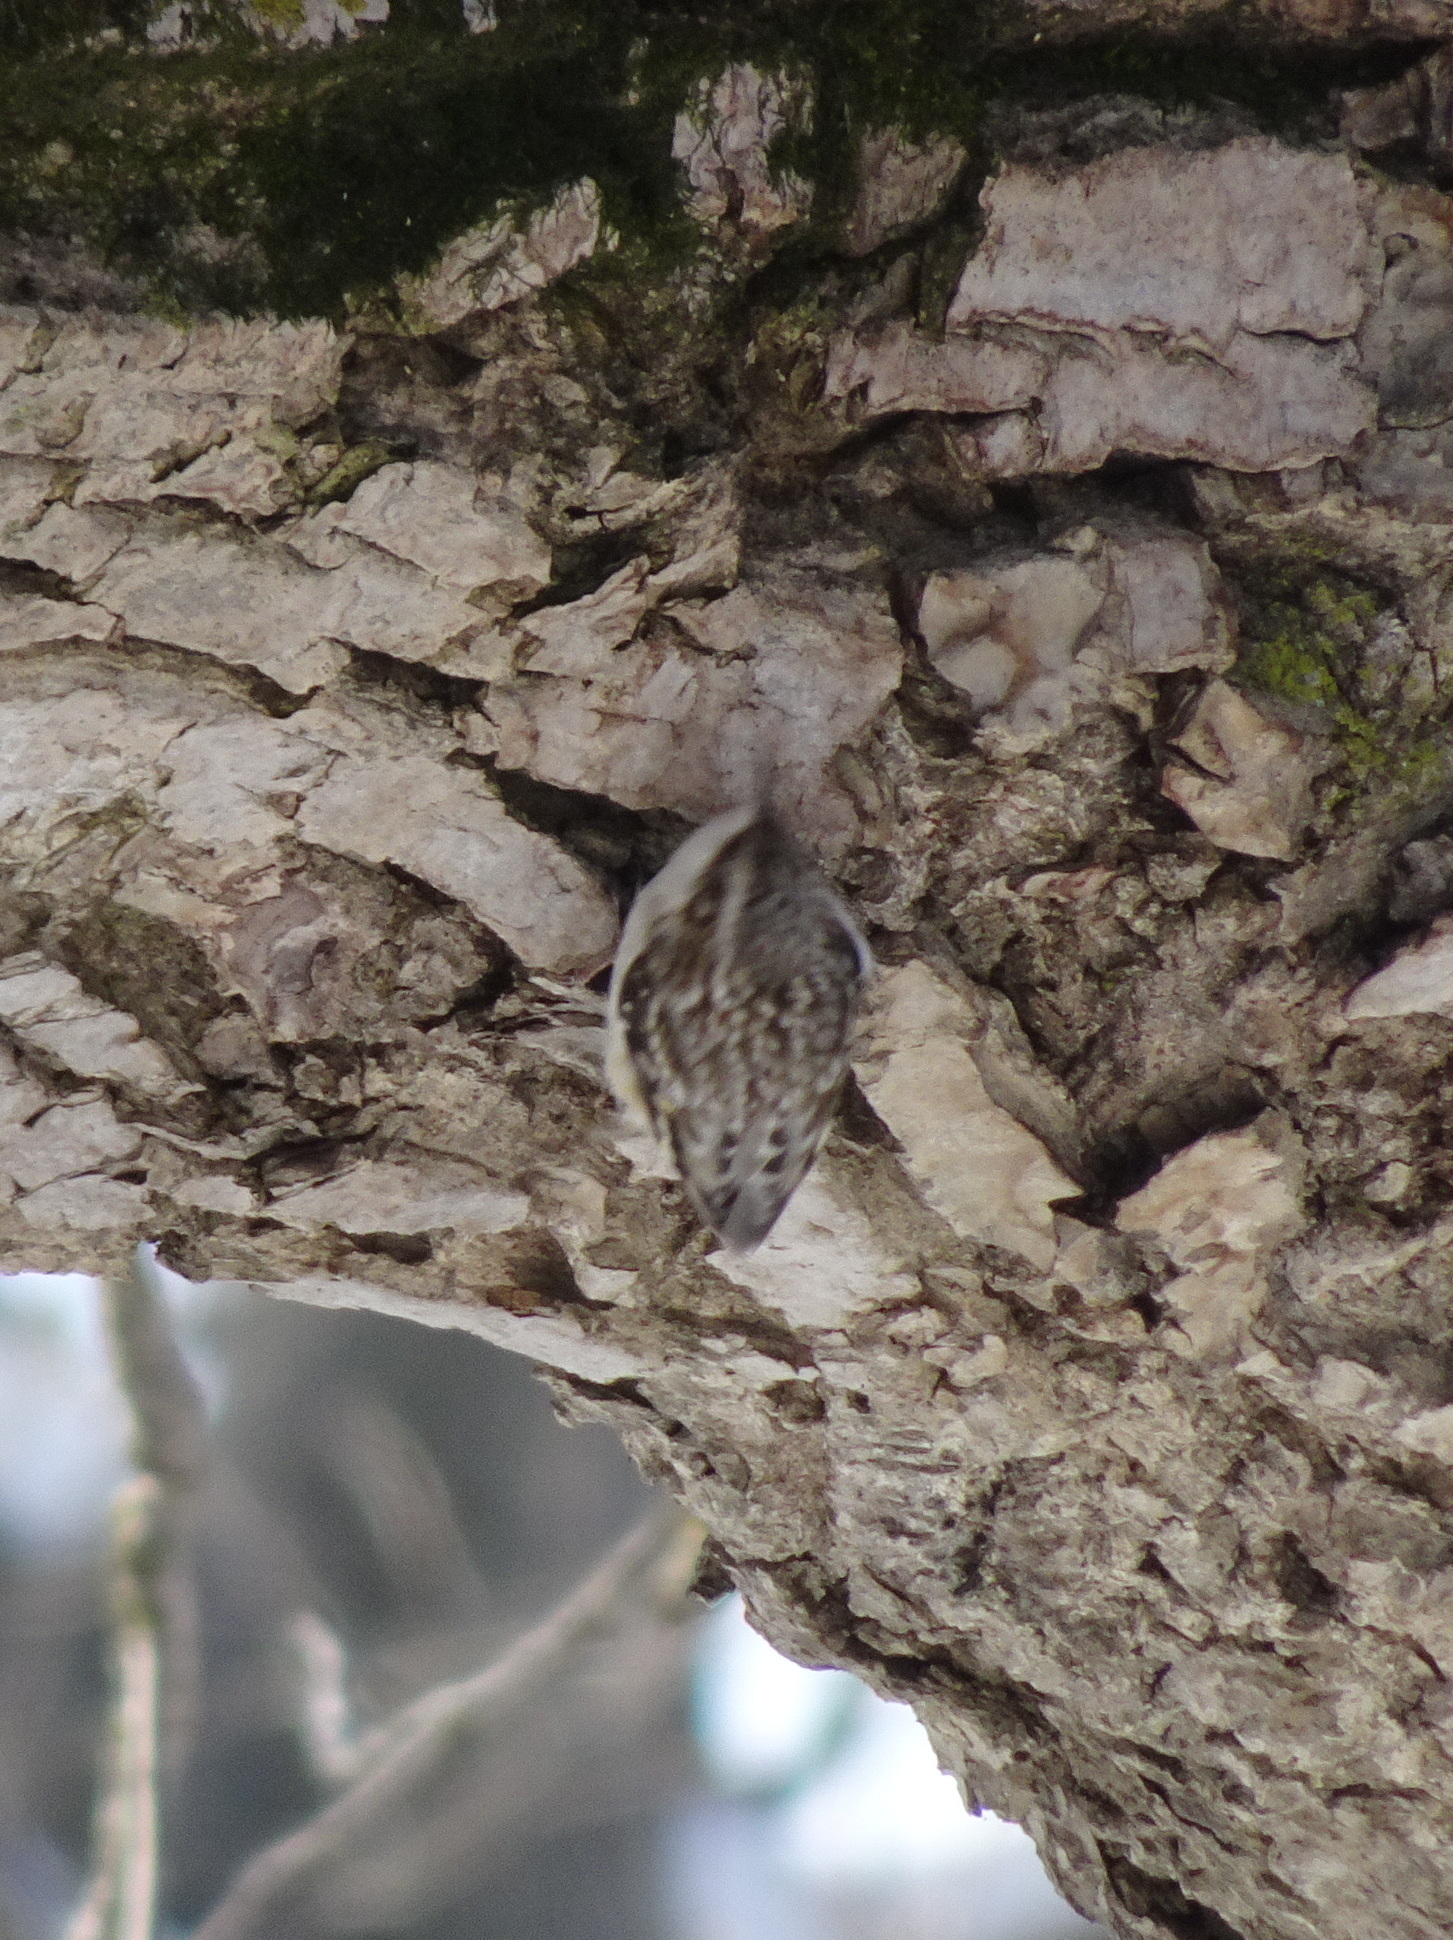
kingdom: Animalia
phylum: Chordata
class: Aves
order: Passeriformes
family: Certhiidae
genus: Certhia
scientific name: Certhia americana
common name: Brown creeper
